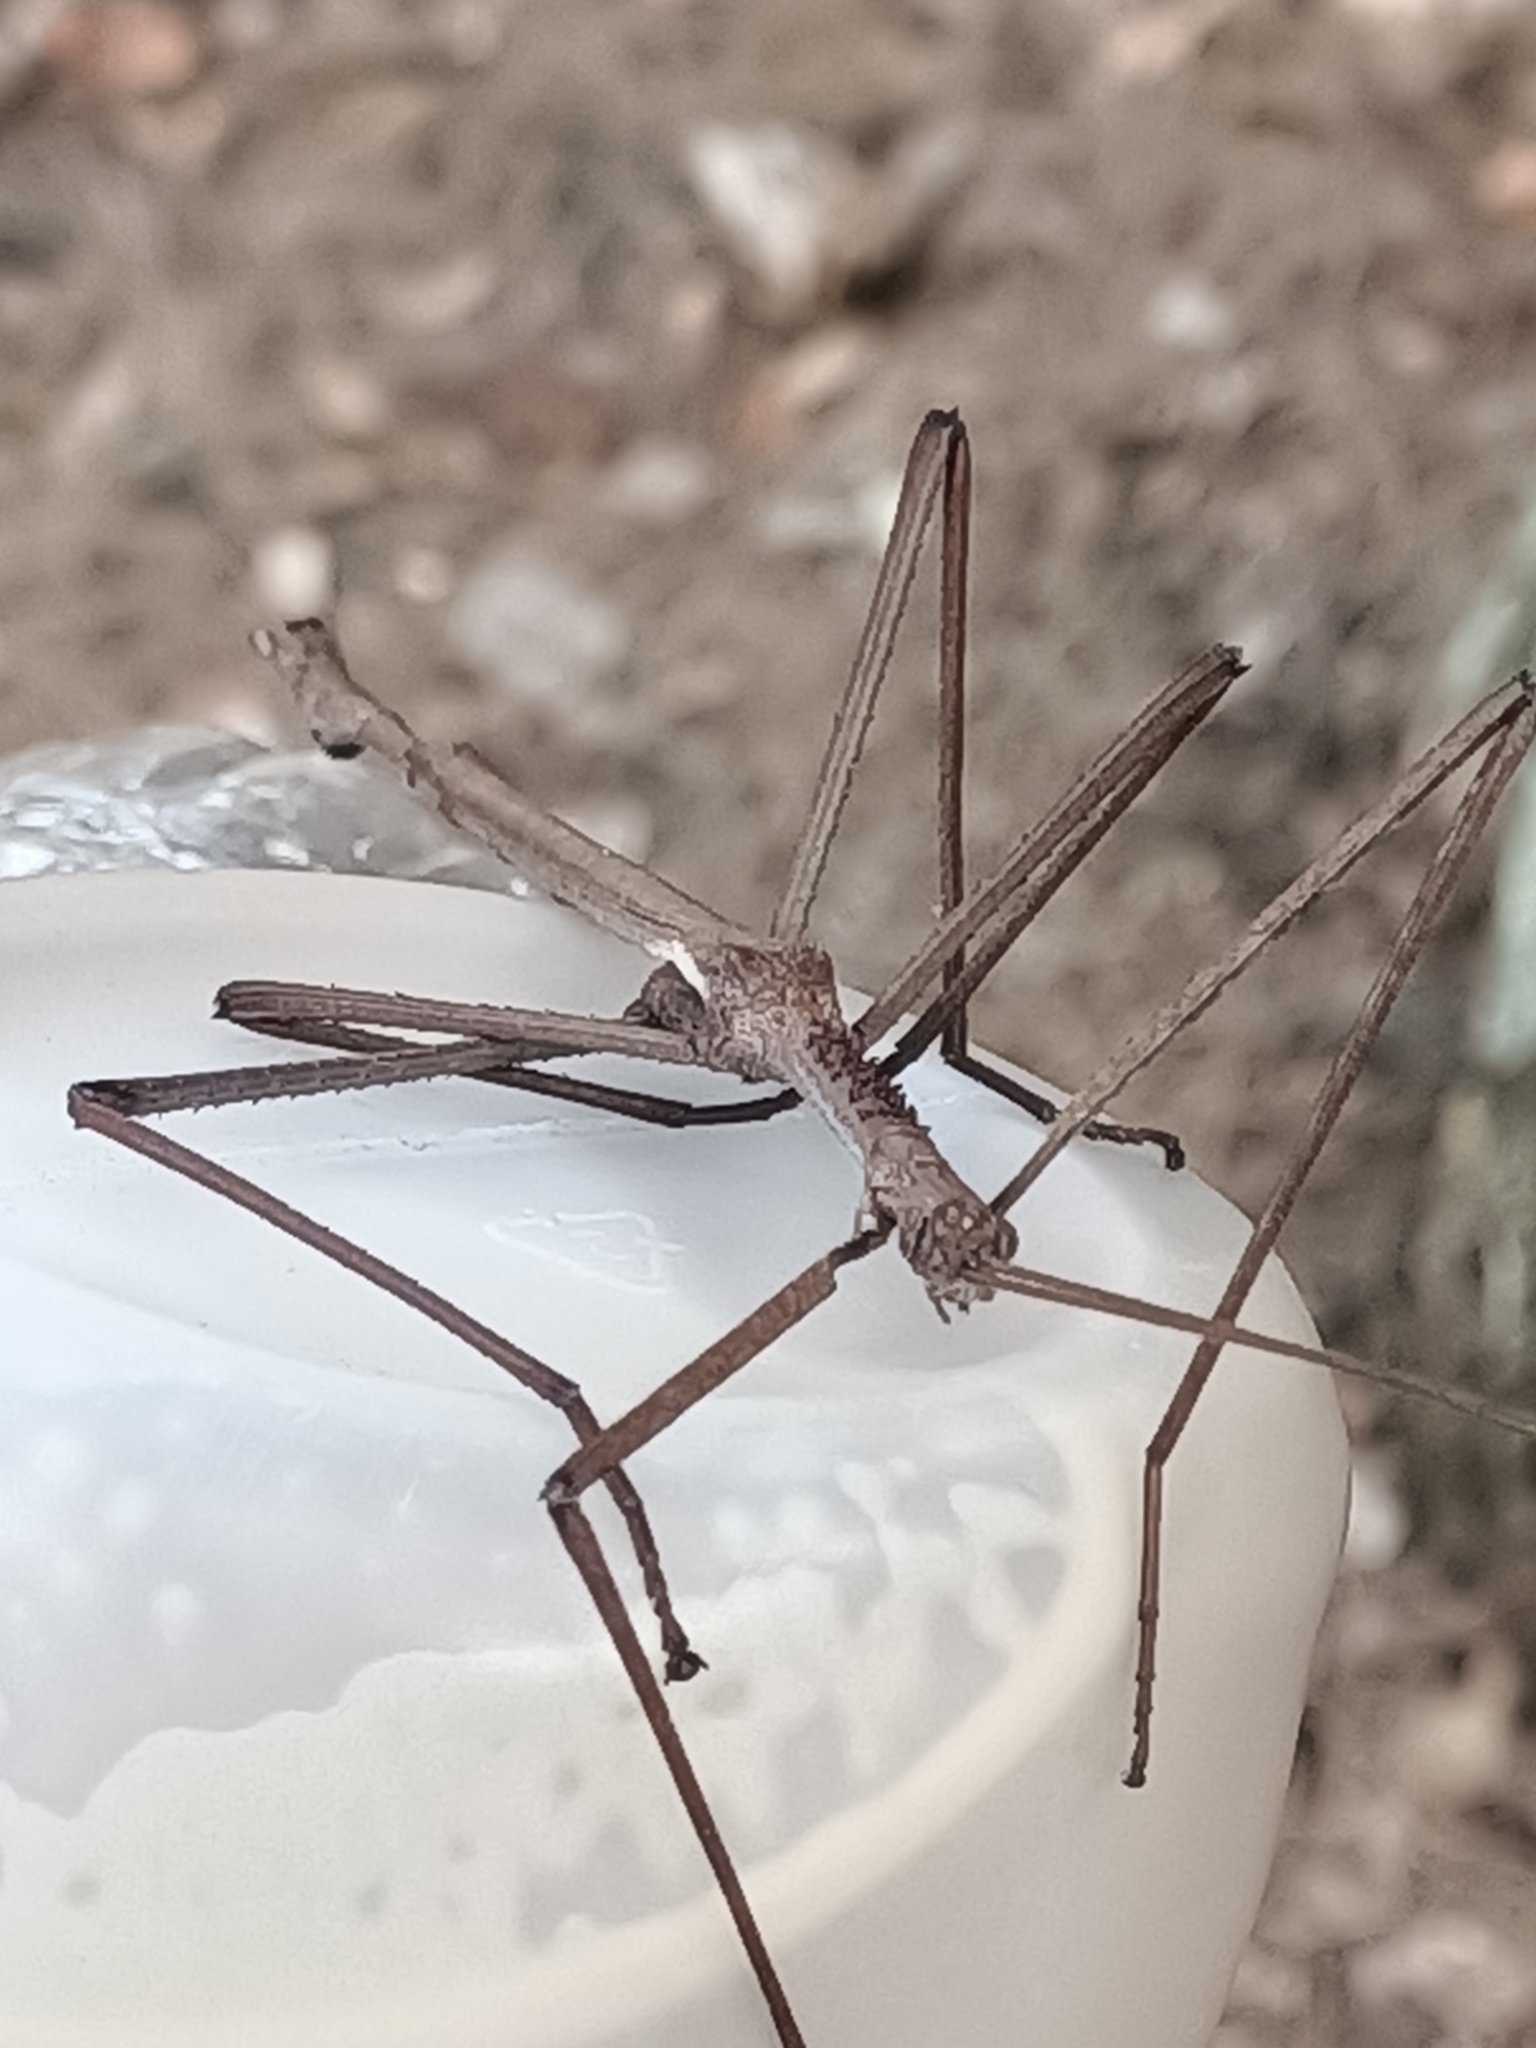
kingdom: Animalia
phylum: Arthropoda
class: Insecta
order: Phasmida
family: Phasmatidae
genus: Acrophylla
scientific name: Acrophylla thoon
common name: Quick stick-insect
